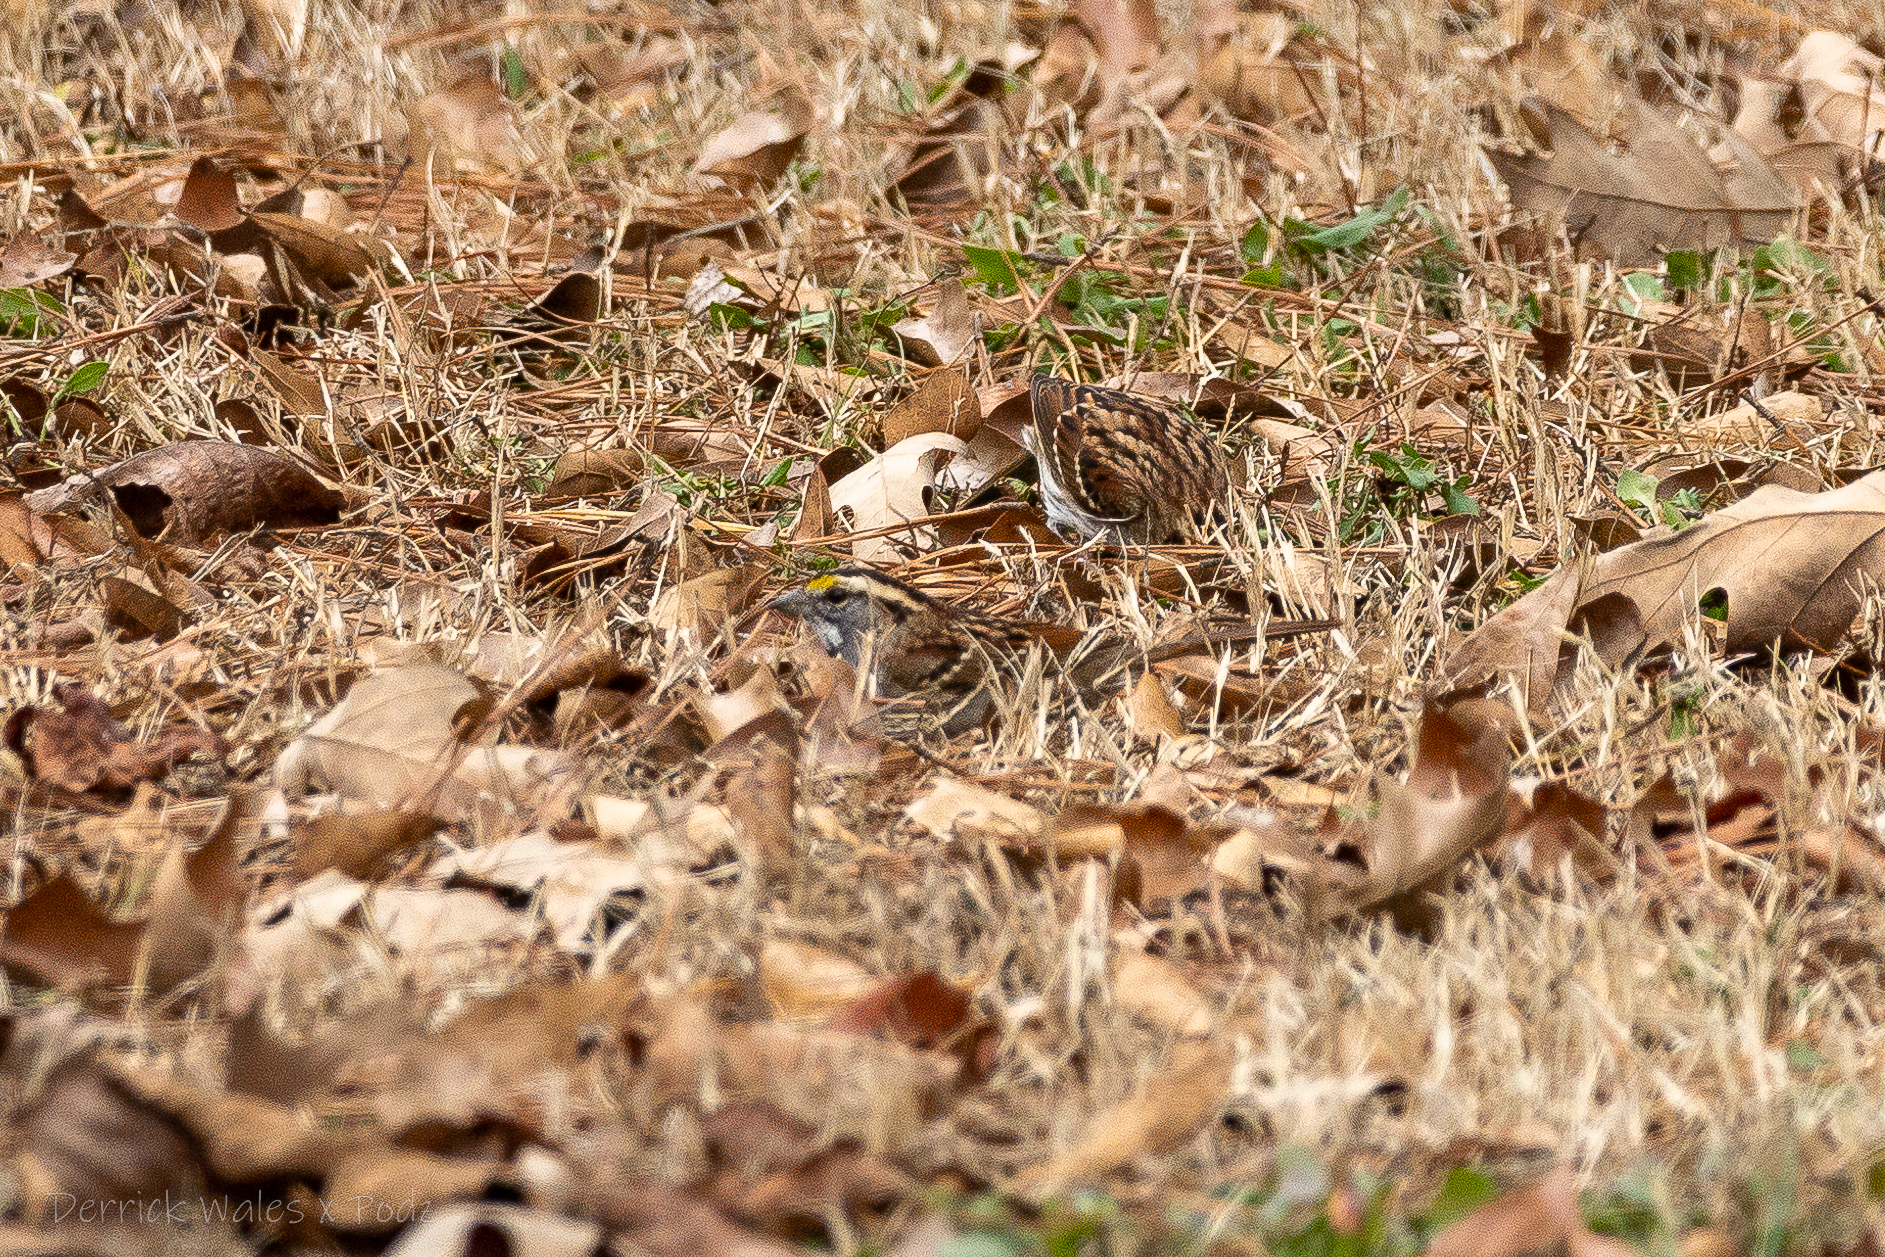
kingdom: Animalia
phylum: Chordata
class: Aves
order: Passeriformes
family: Passerellidae
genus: Zonotrichia
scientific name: Zonotrichia albicollis
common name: White-throated sparrow
